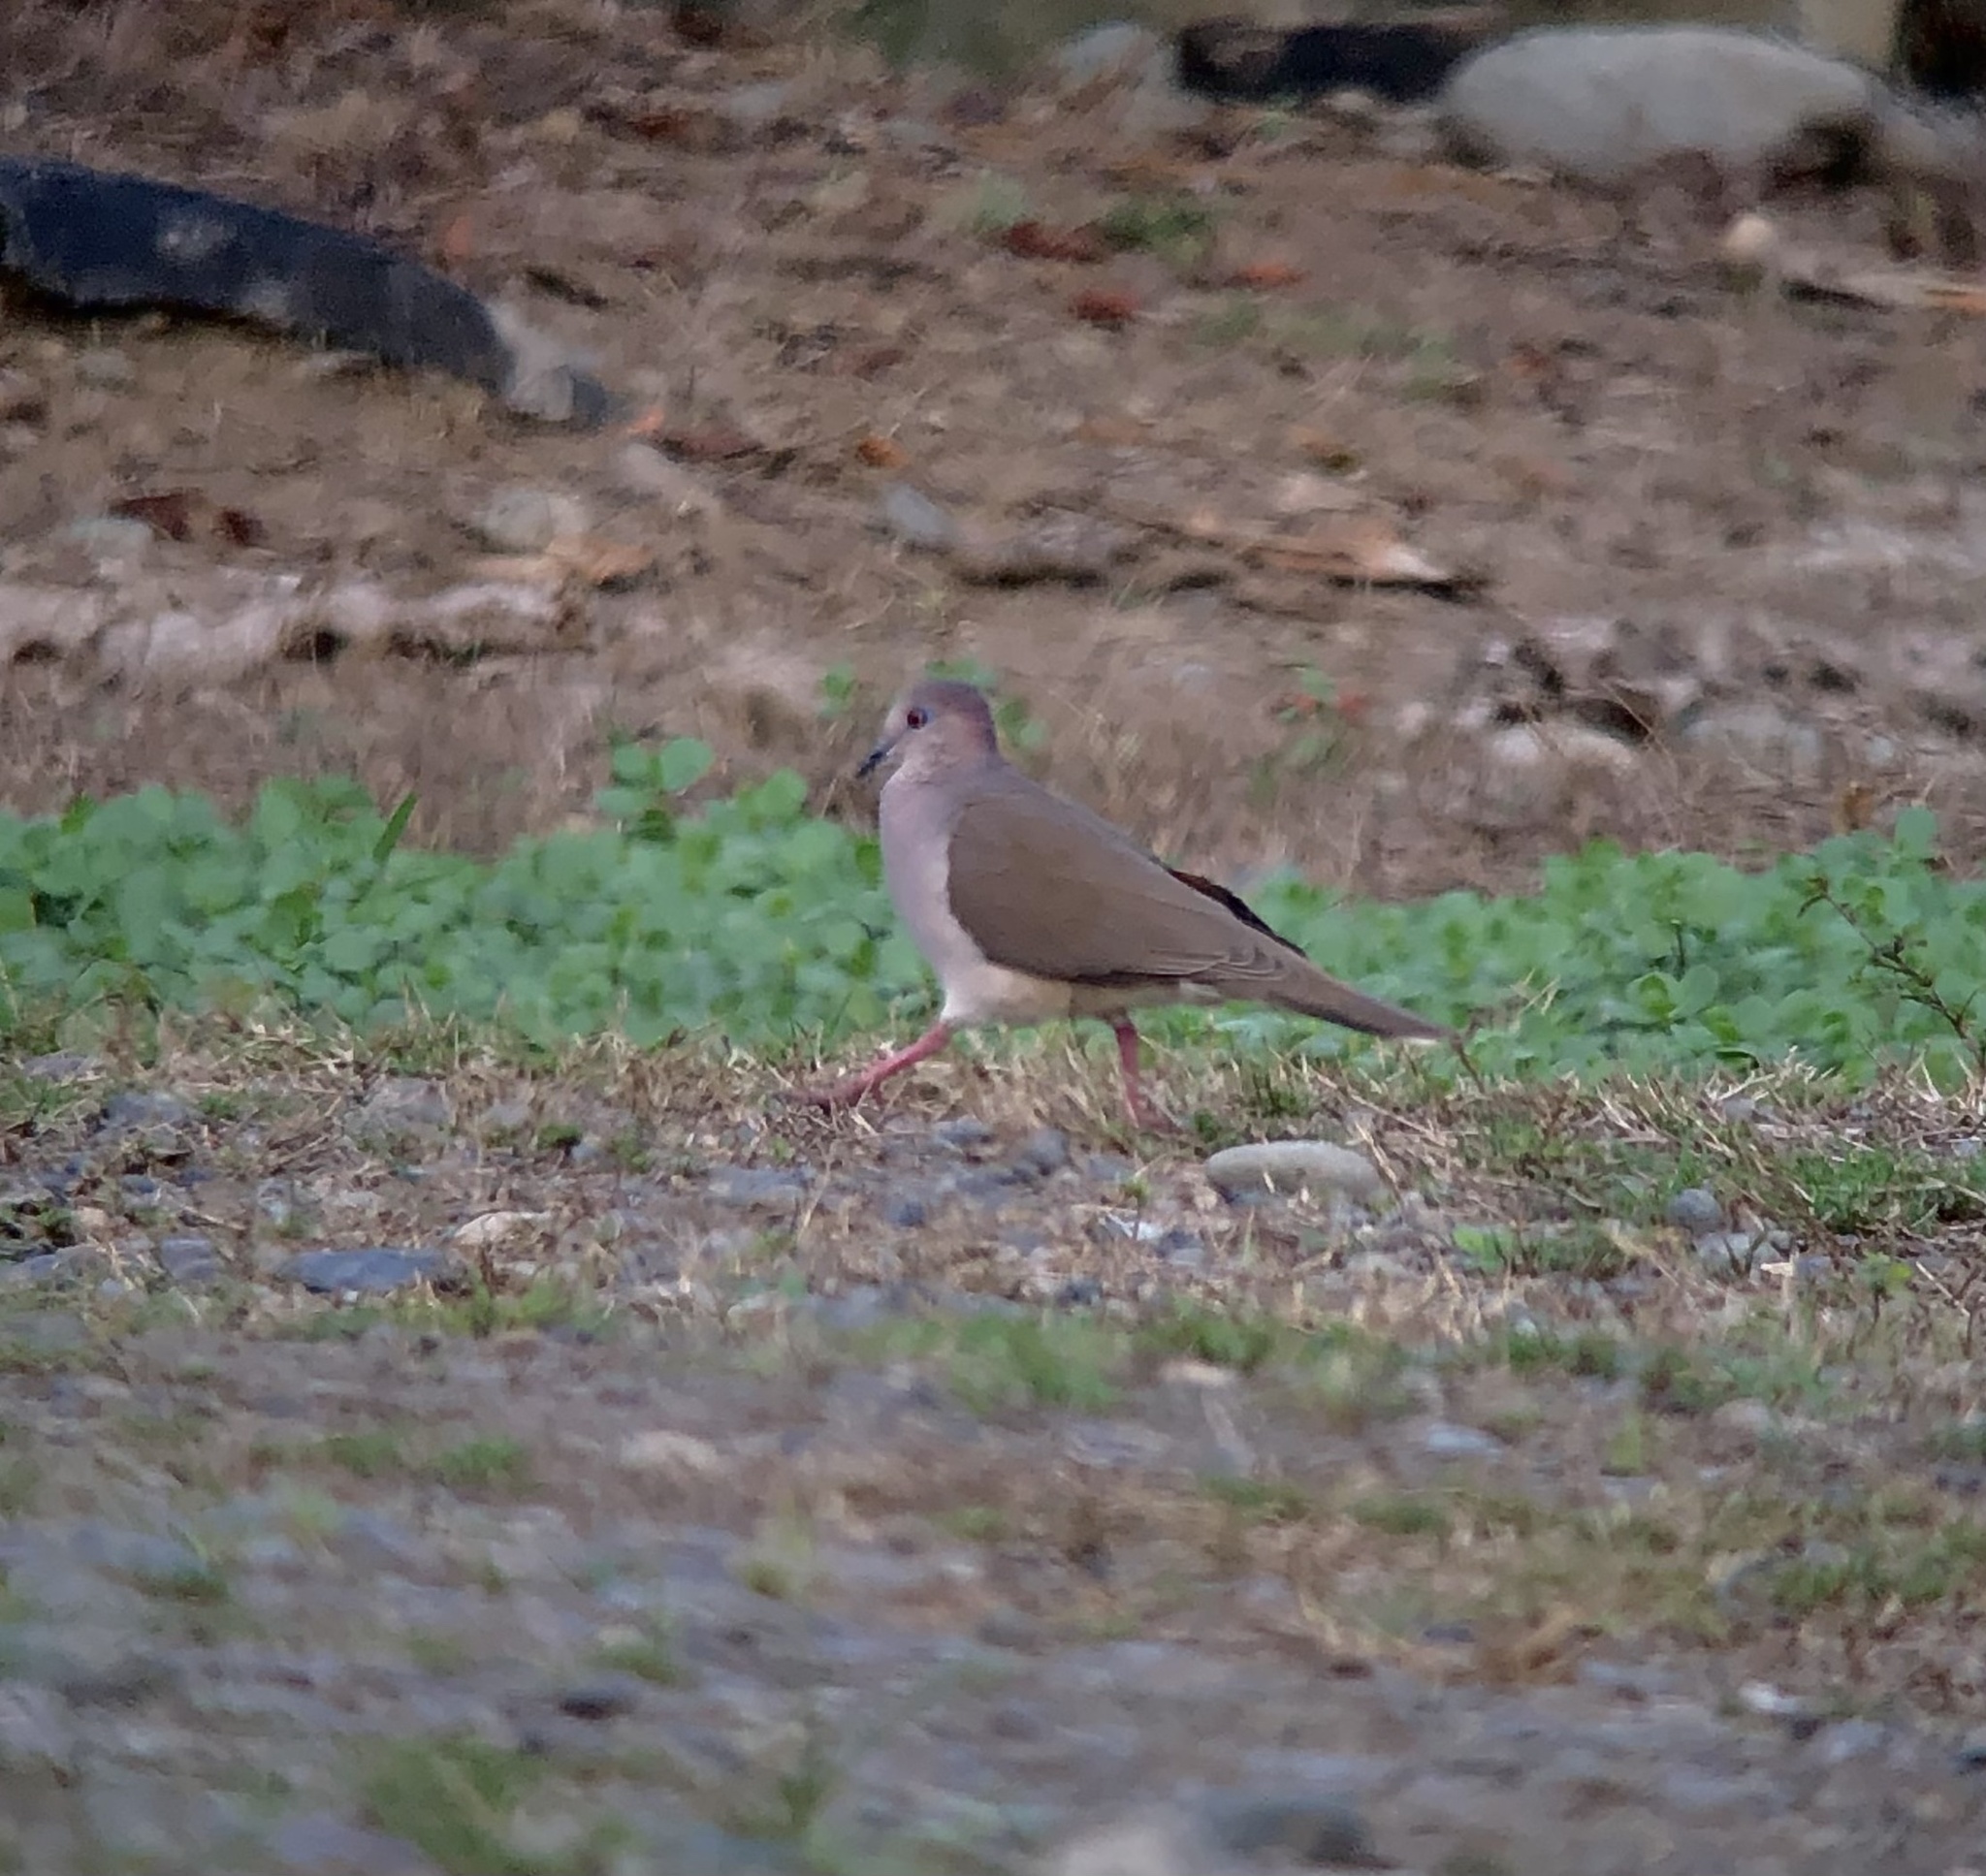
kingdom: Animalia
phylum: Chordata
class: Aves
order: Columbiformes
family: Columbidae
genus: Leptotila
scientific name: Leptotila verreauxi
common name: White-tipped dove
